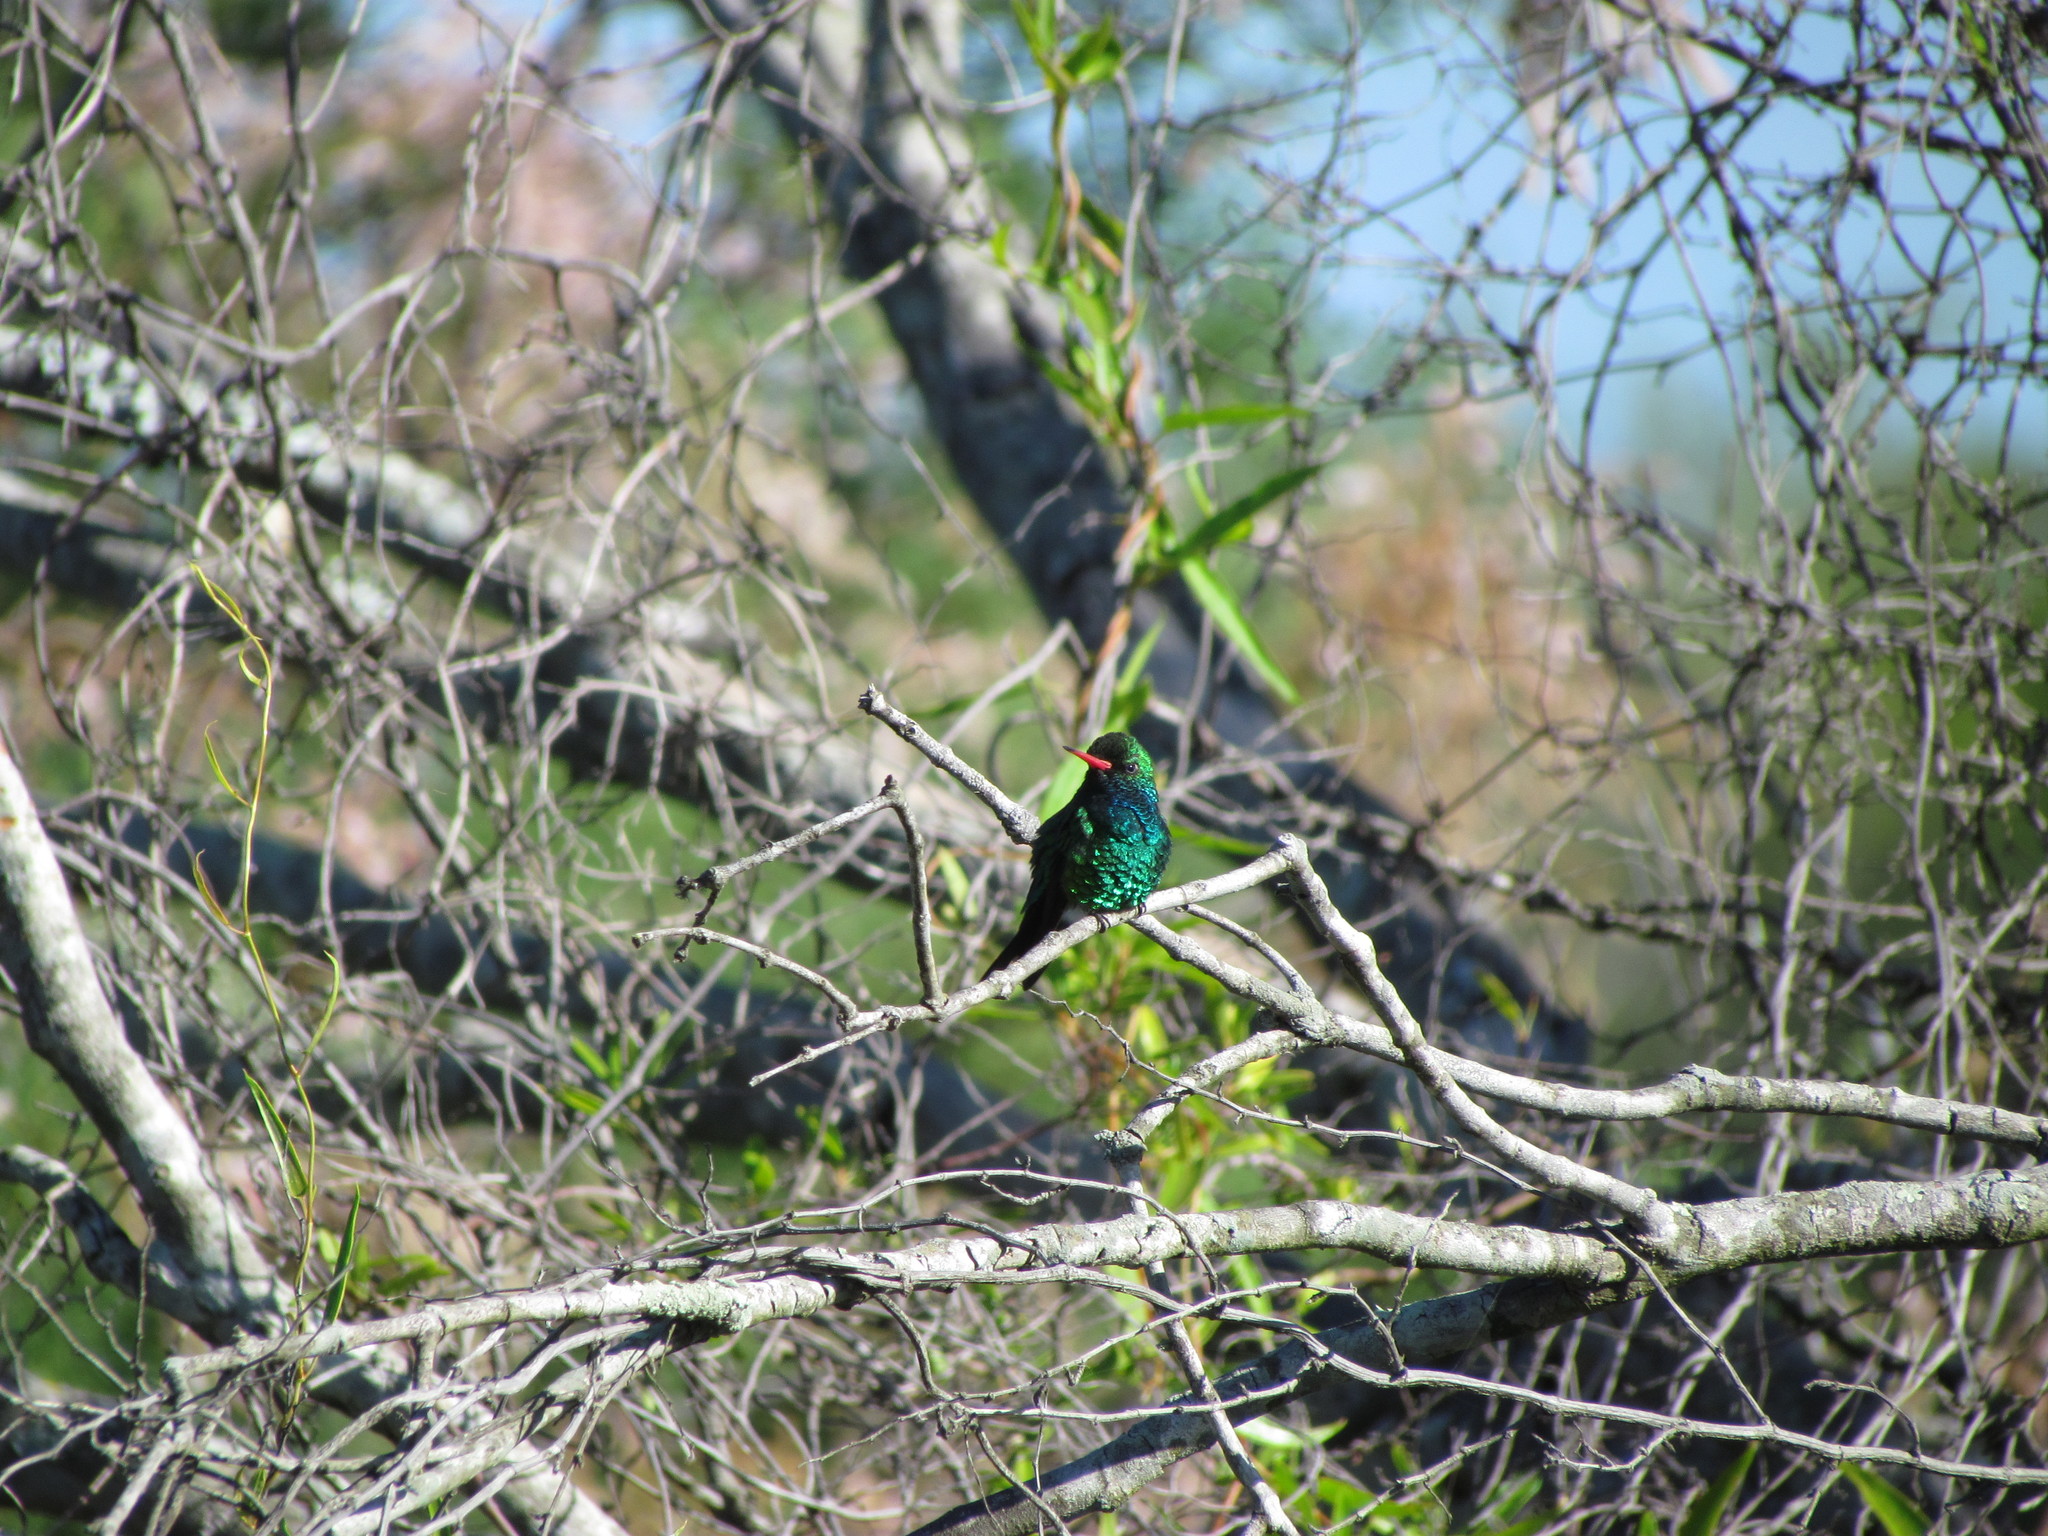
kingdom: Animalia
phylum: Chordata
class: Aves
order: Apodiformes
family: Trochilidae
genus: Chlorostilbon
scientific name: Chlorostilbon lucidus
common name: Glittering-bellied emerald
